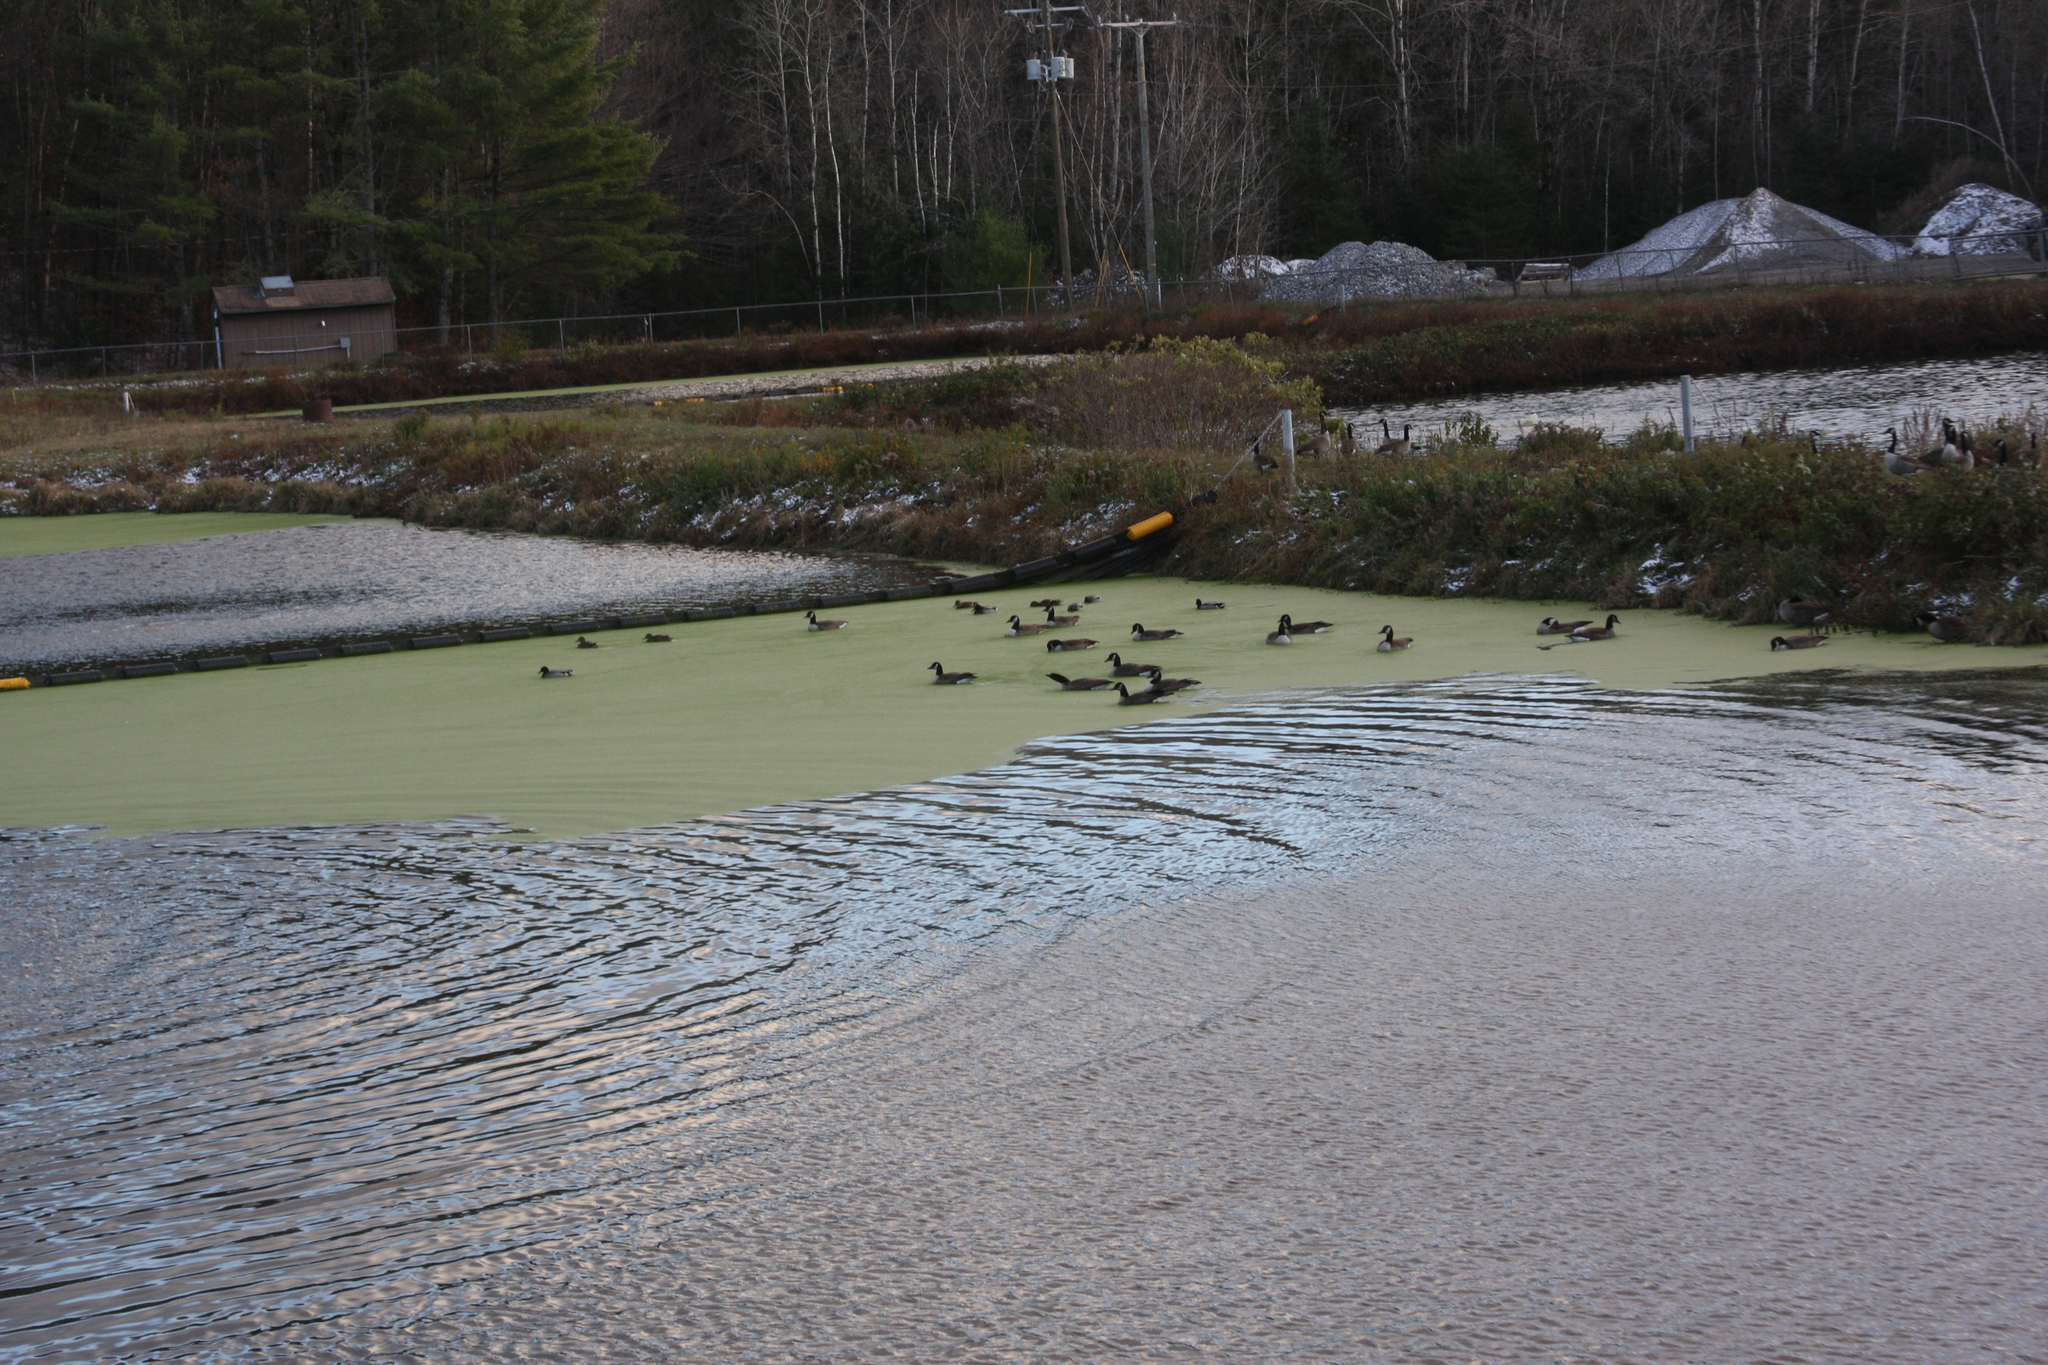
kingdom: Animalia
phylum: Chordata
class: Aves
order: Anseriformes
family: Anatidae
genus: Branta
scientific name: Branta canadensis
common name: Canada goose
